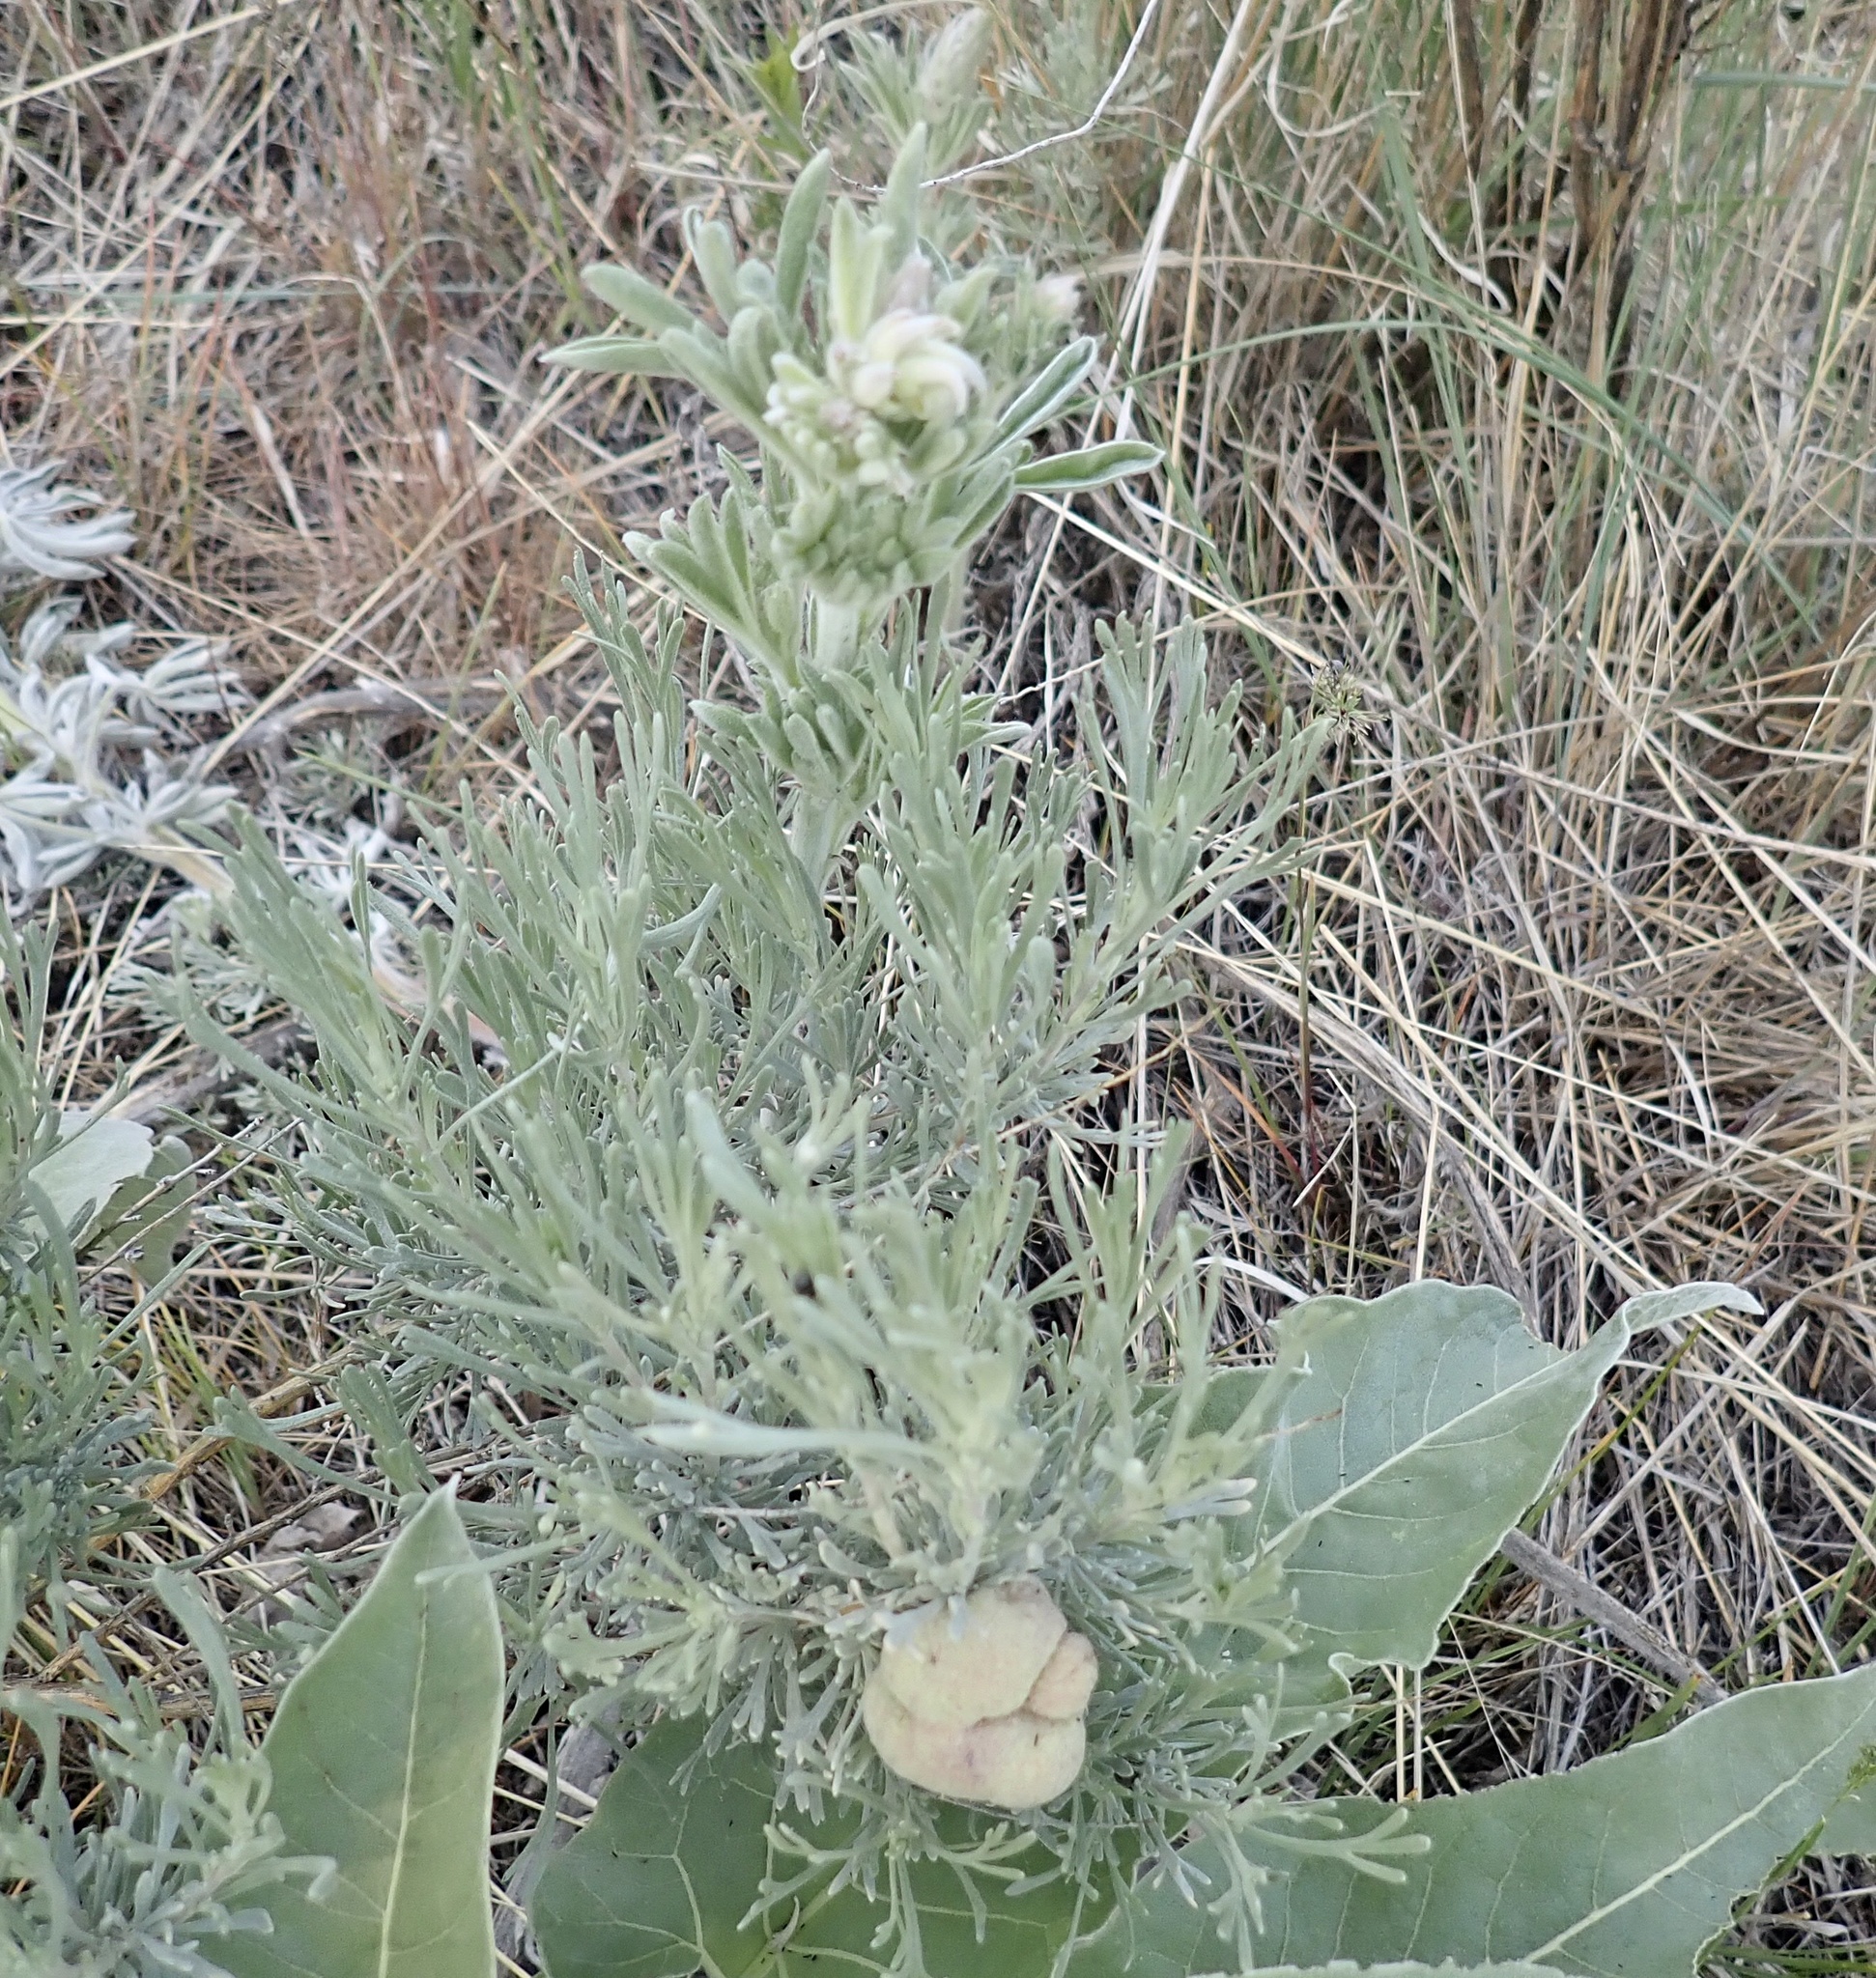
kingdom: Plantae
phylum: Tracheophyta
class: Magnoliopsida
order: Asterales
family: Asteraceae
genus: Artemisia
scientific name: Artemisia tripartita
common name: Three-tip sagebrush
